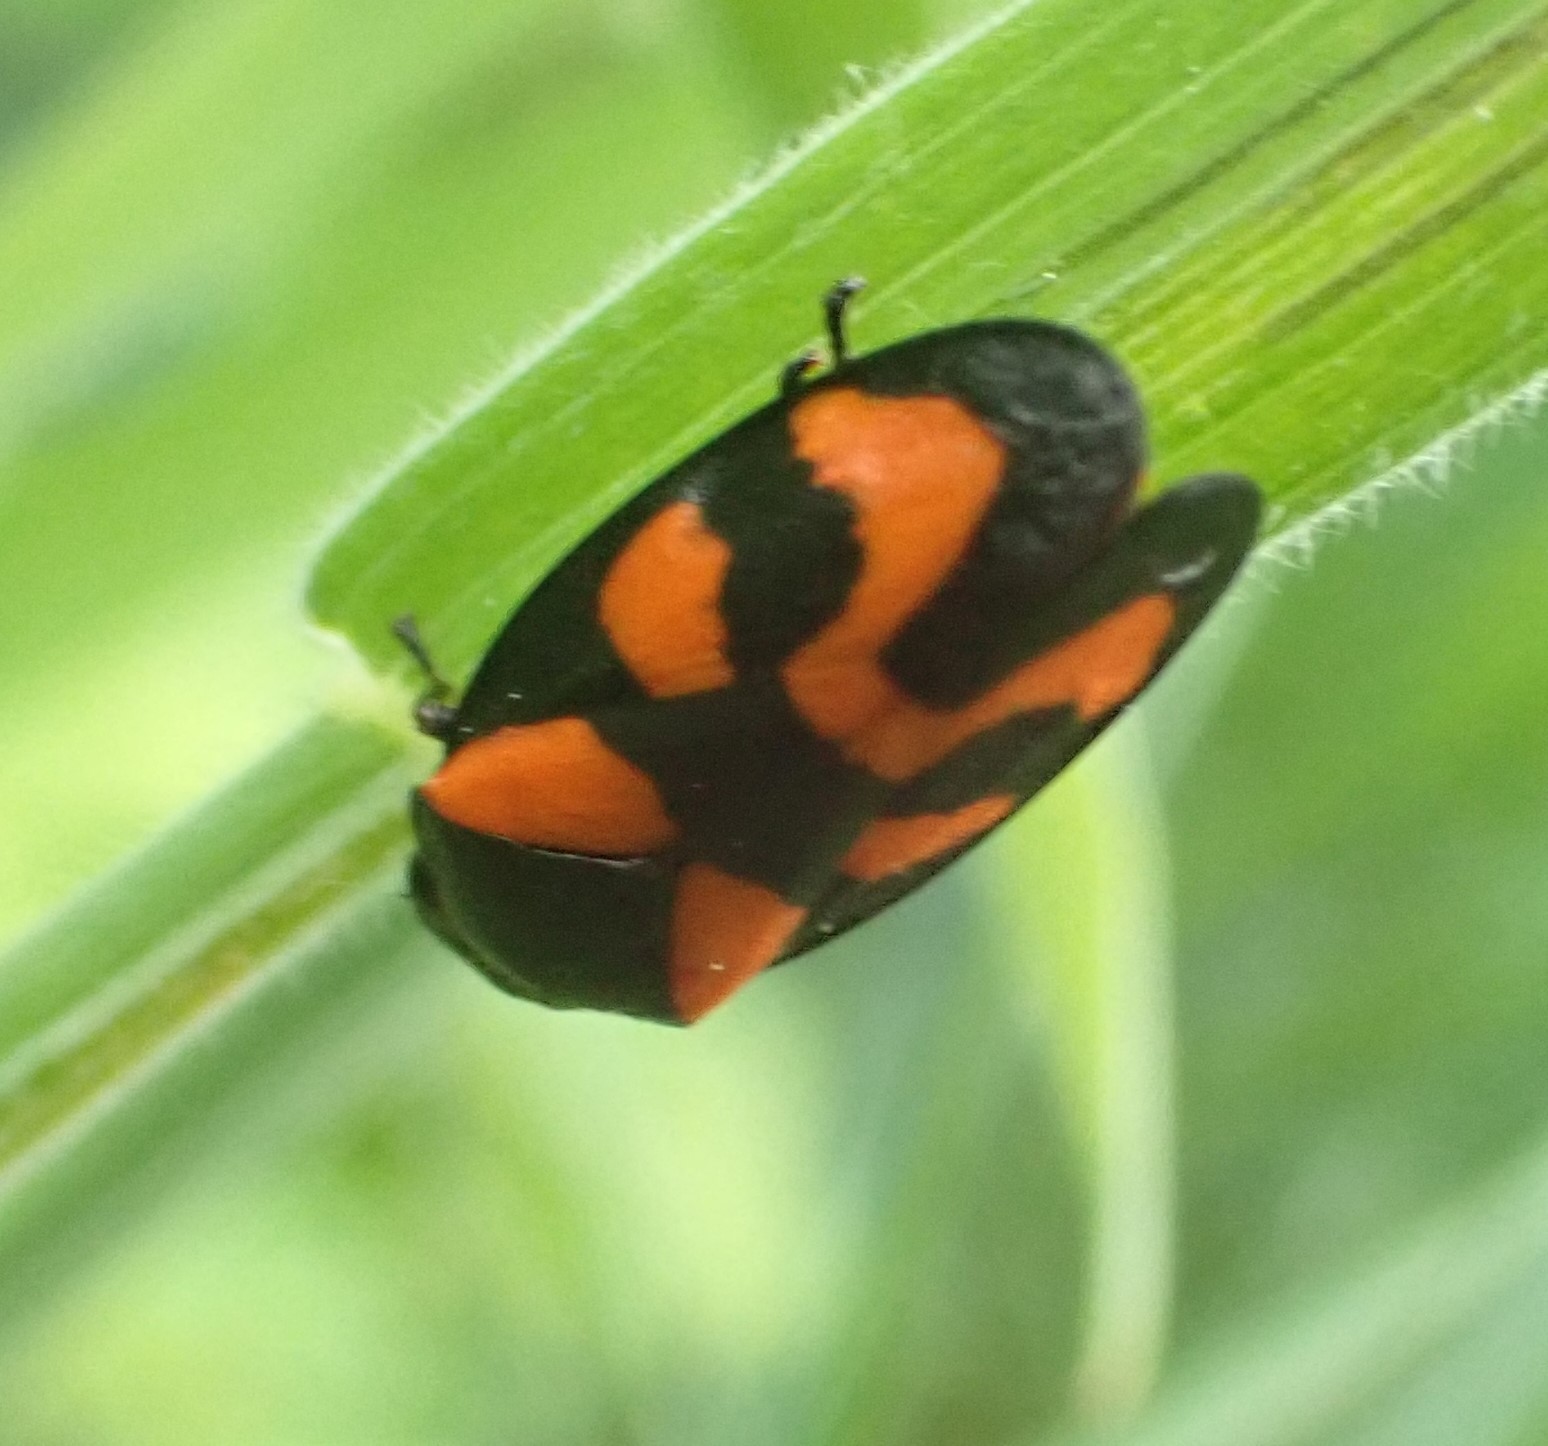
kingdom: Animalia
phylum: Arthropoda
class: Insecta
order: Hemiptera
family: Cercopidae
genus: Cercopis
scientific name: Cercopis vulnerata
